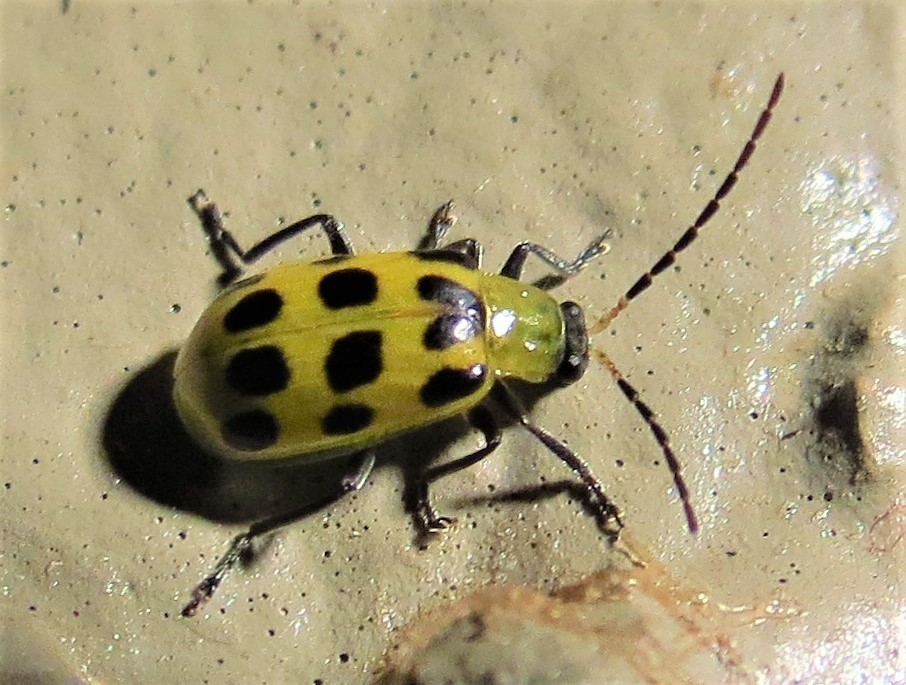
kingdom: Animalia
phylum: Arthropoda
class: Insecta
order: Coleoptera
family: Chrysomelidae
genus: Diabrotica
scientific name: Diabrotica undecimpunctata
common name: Spotted cucumber beetle
